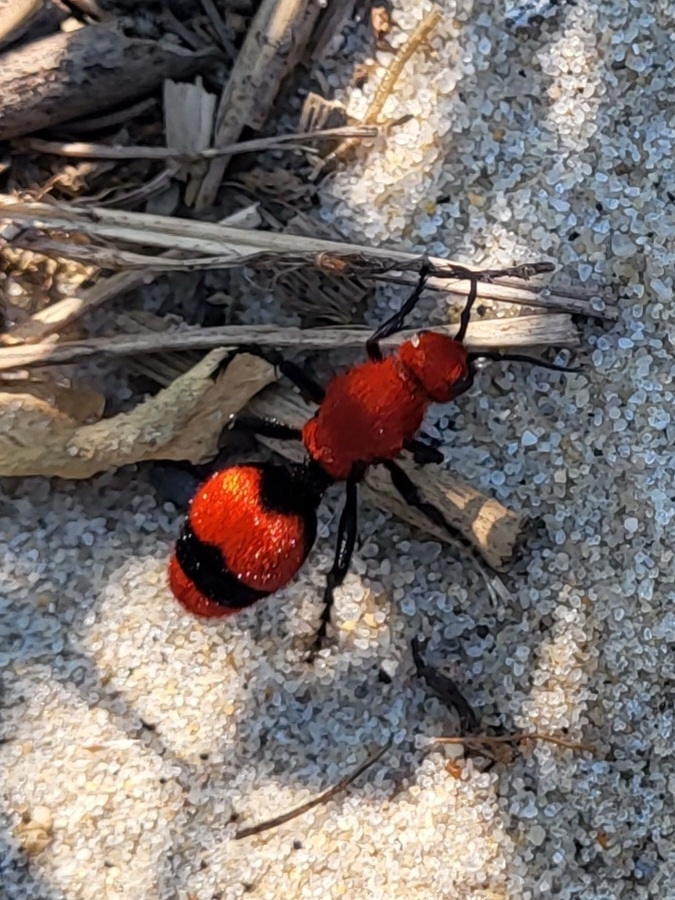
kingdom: Animalia
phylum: Arthropoda
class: Insecta
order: Hymenoptera
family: Mutillidae
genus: Dasymutilla
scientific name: Dasymutilla occidentalis
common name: Common eastern velvet ant
